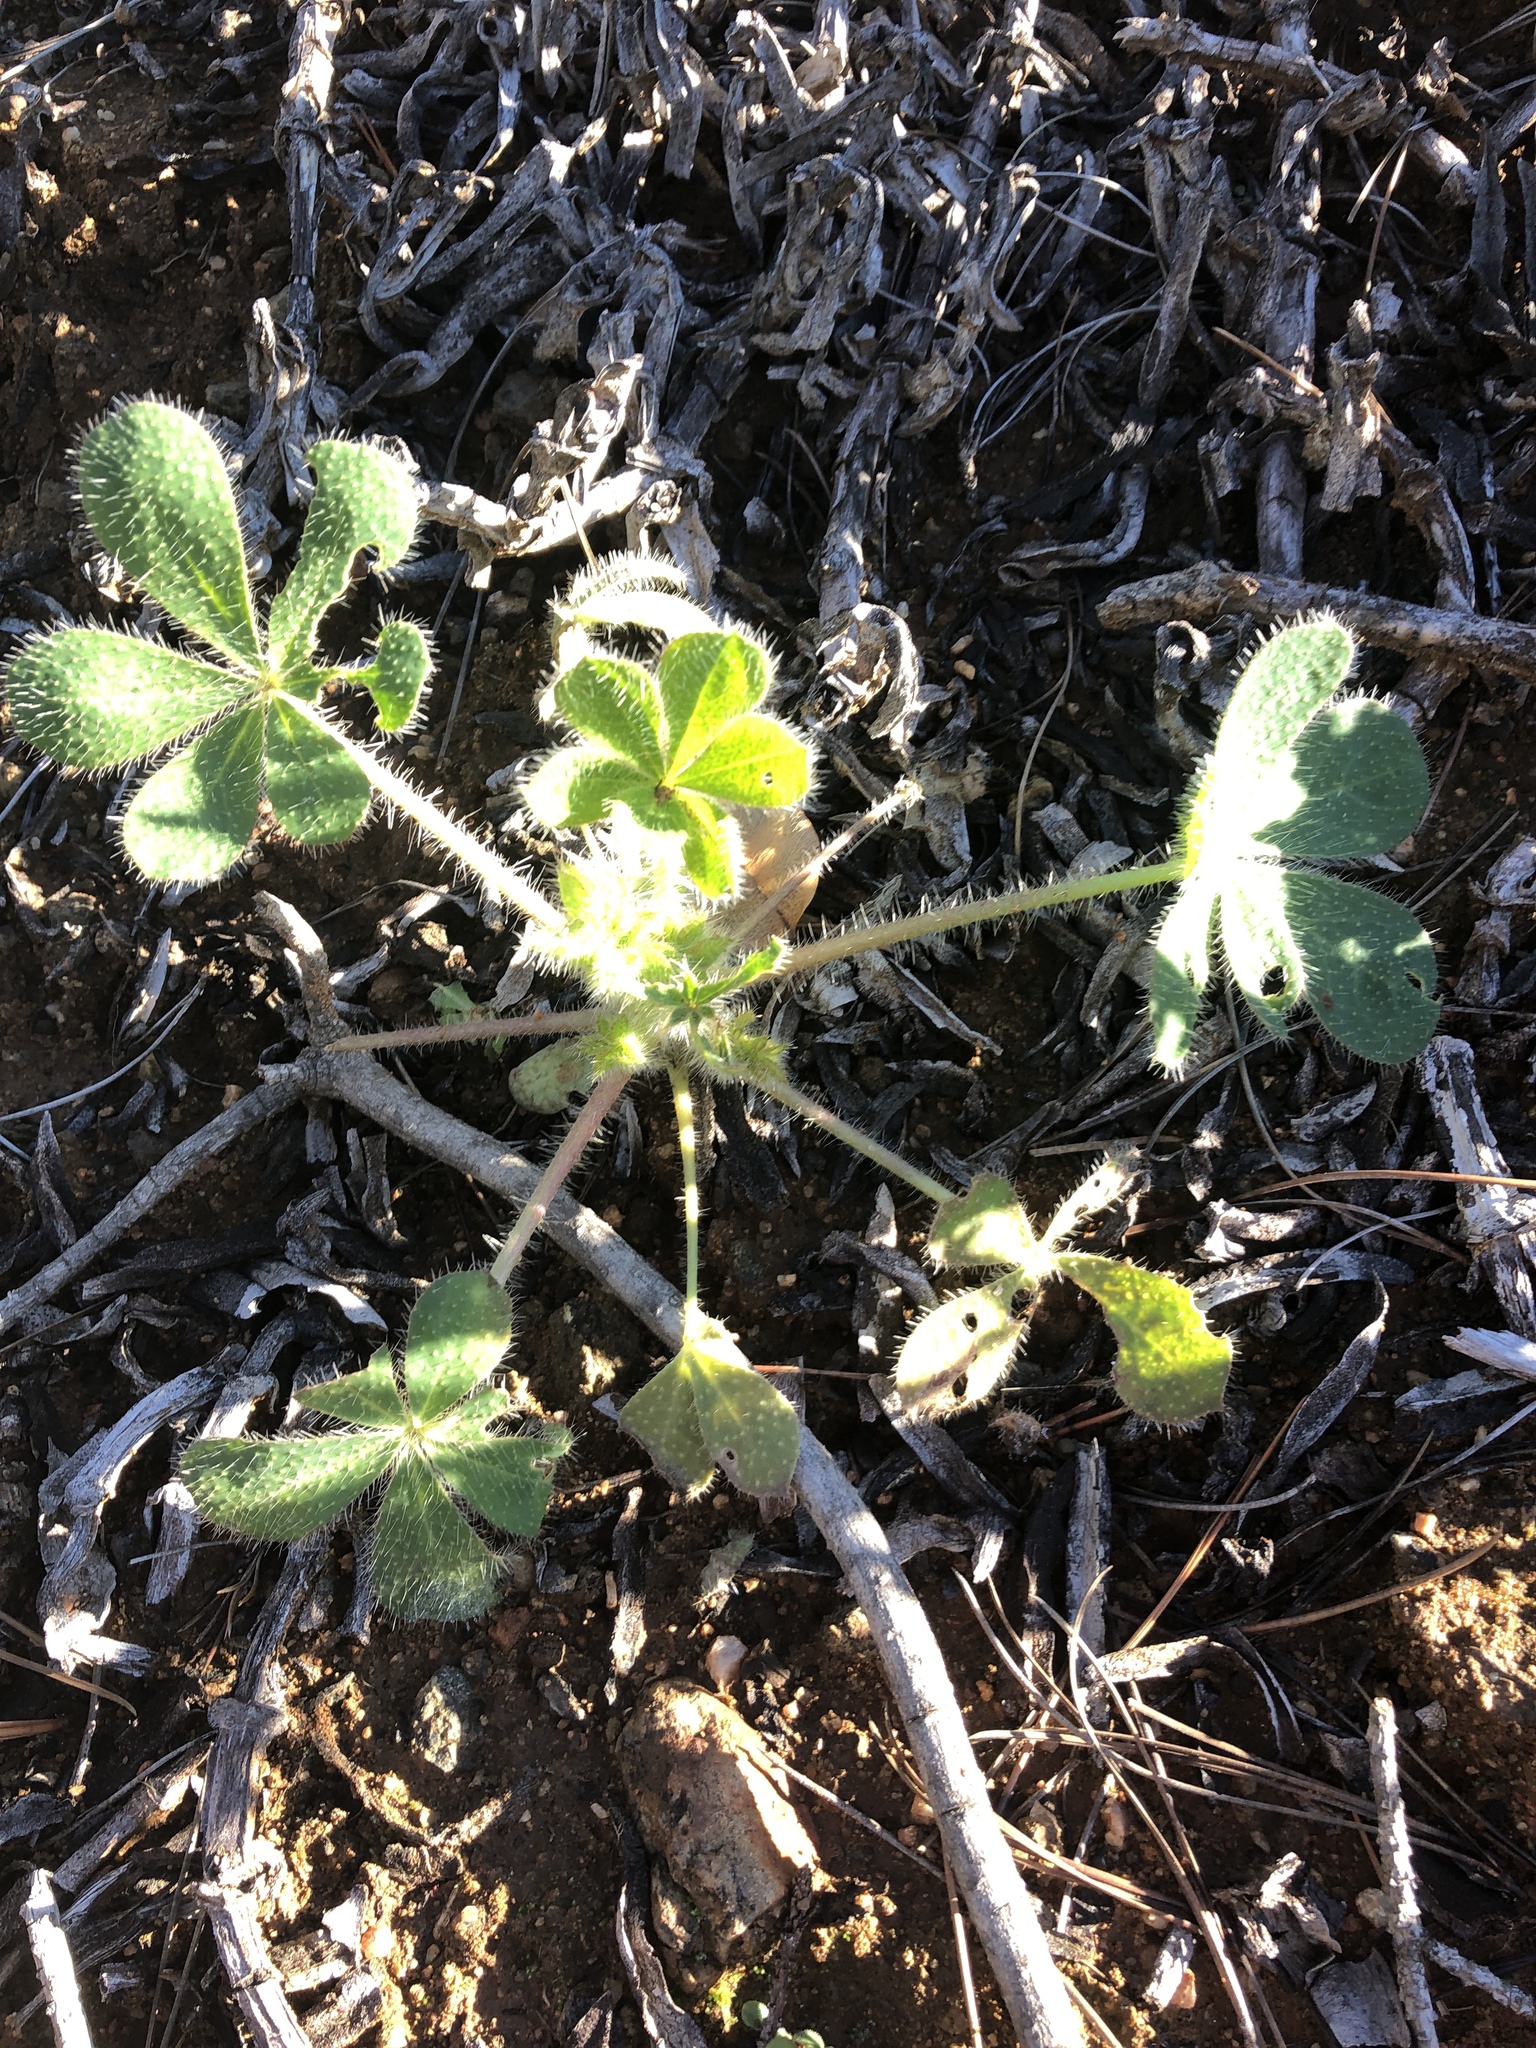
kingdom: Plantae
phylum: Tracheophyta
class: Magnoliopsida
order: Fabales
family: Fabaceae
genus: Lupinus
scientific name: Lupinus hirsutissimus
